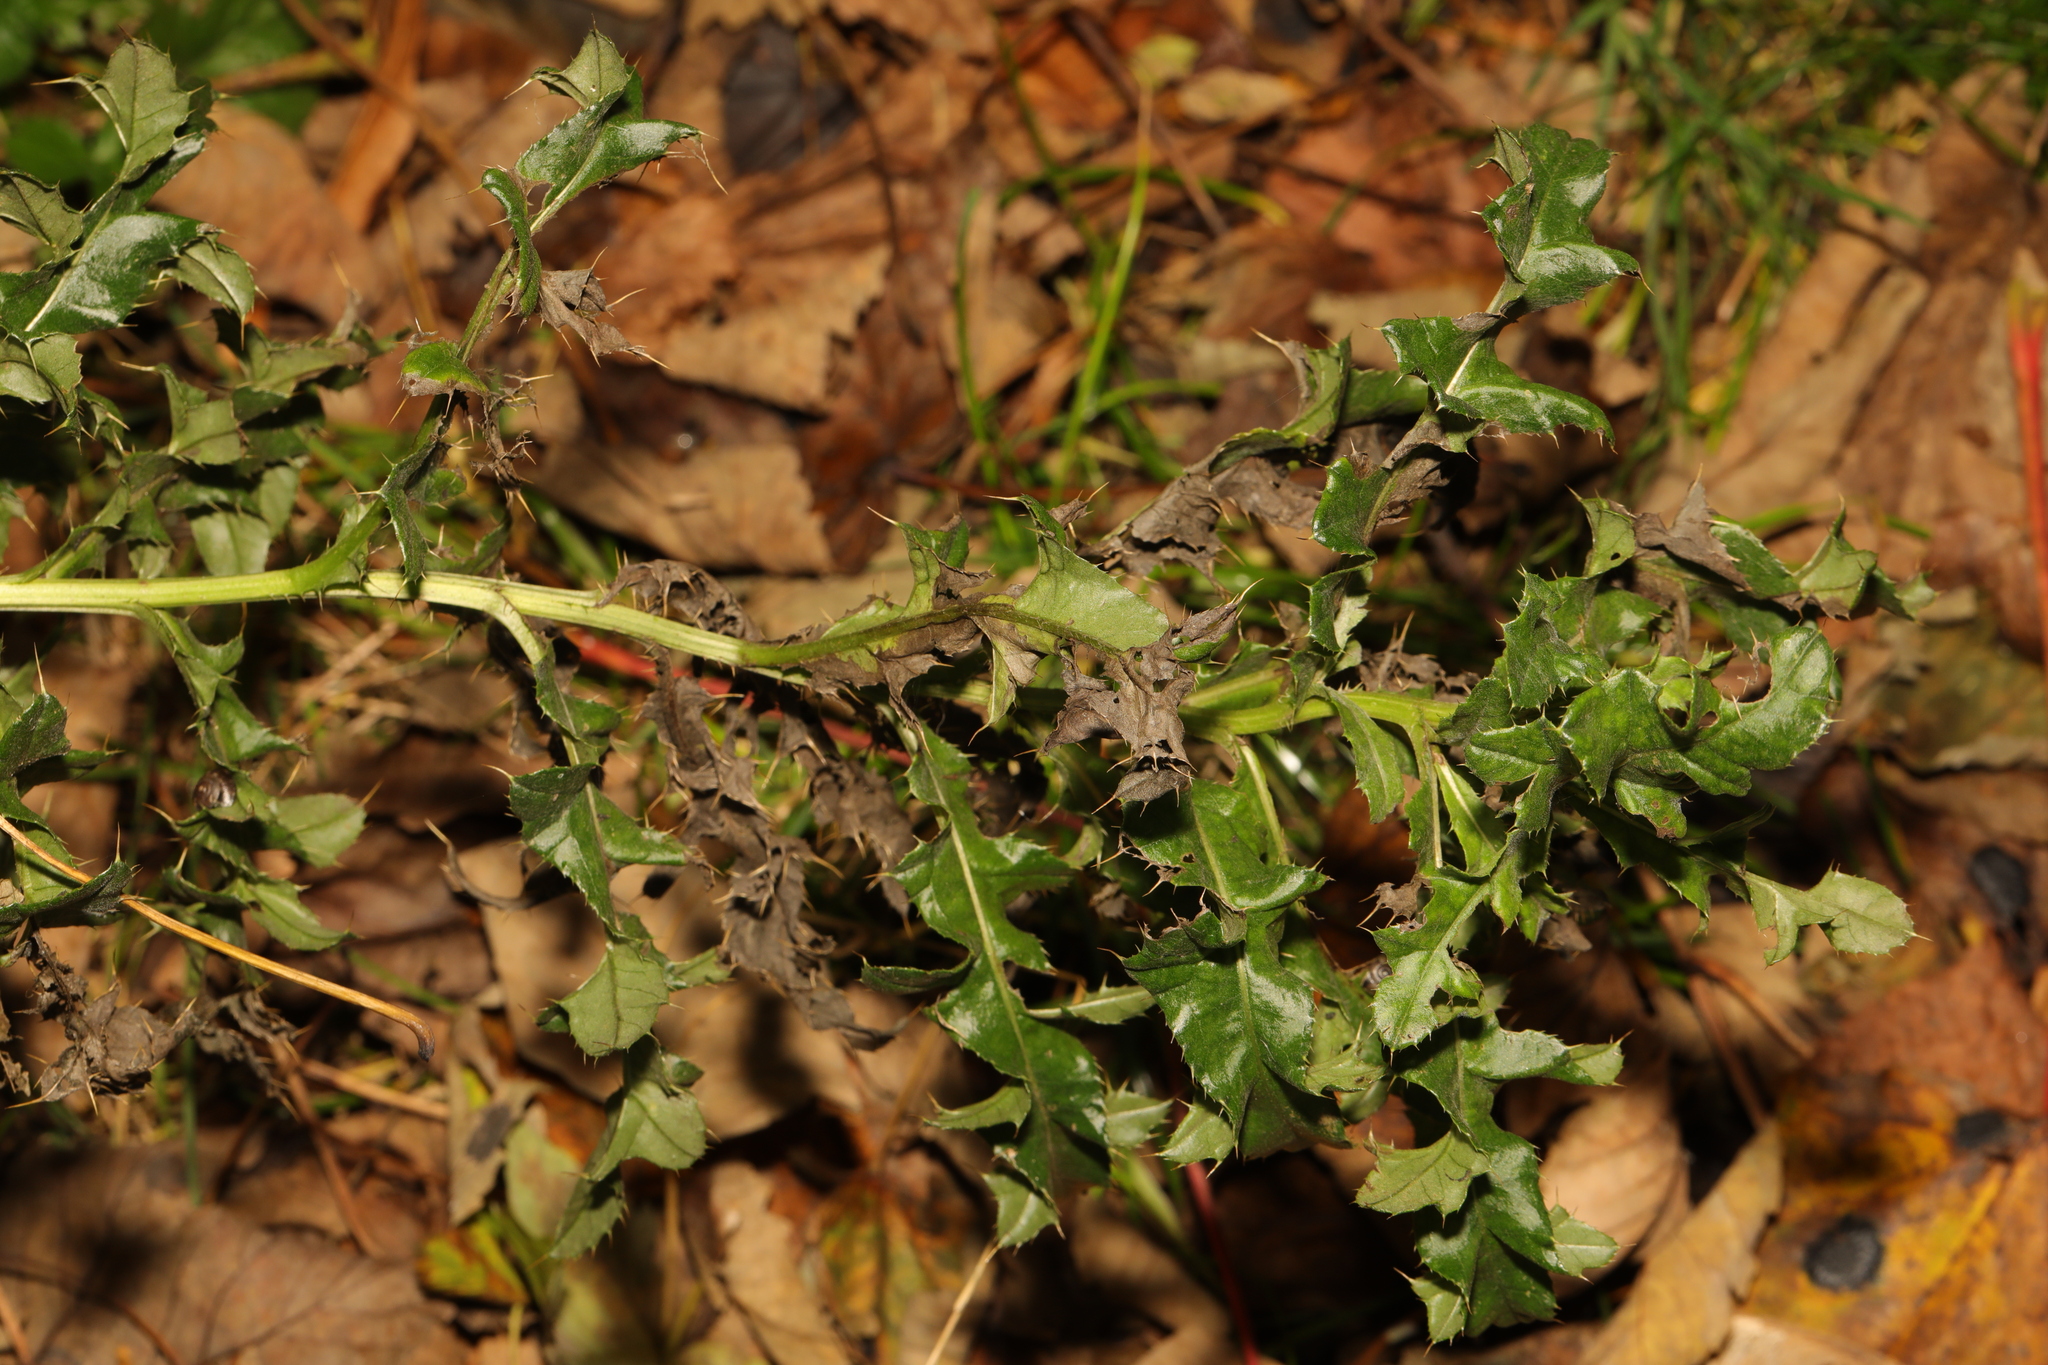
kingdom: Plantae
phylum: Tracheophyta
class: Magnoliopsida
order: Asterales
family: Asteraceae
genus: Cirsium
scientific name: Cirsium arvense
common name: Creeping thistle
